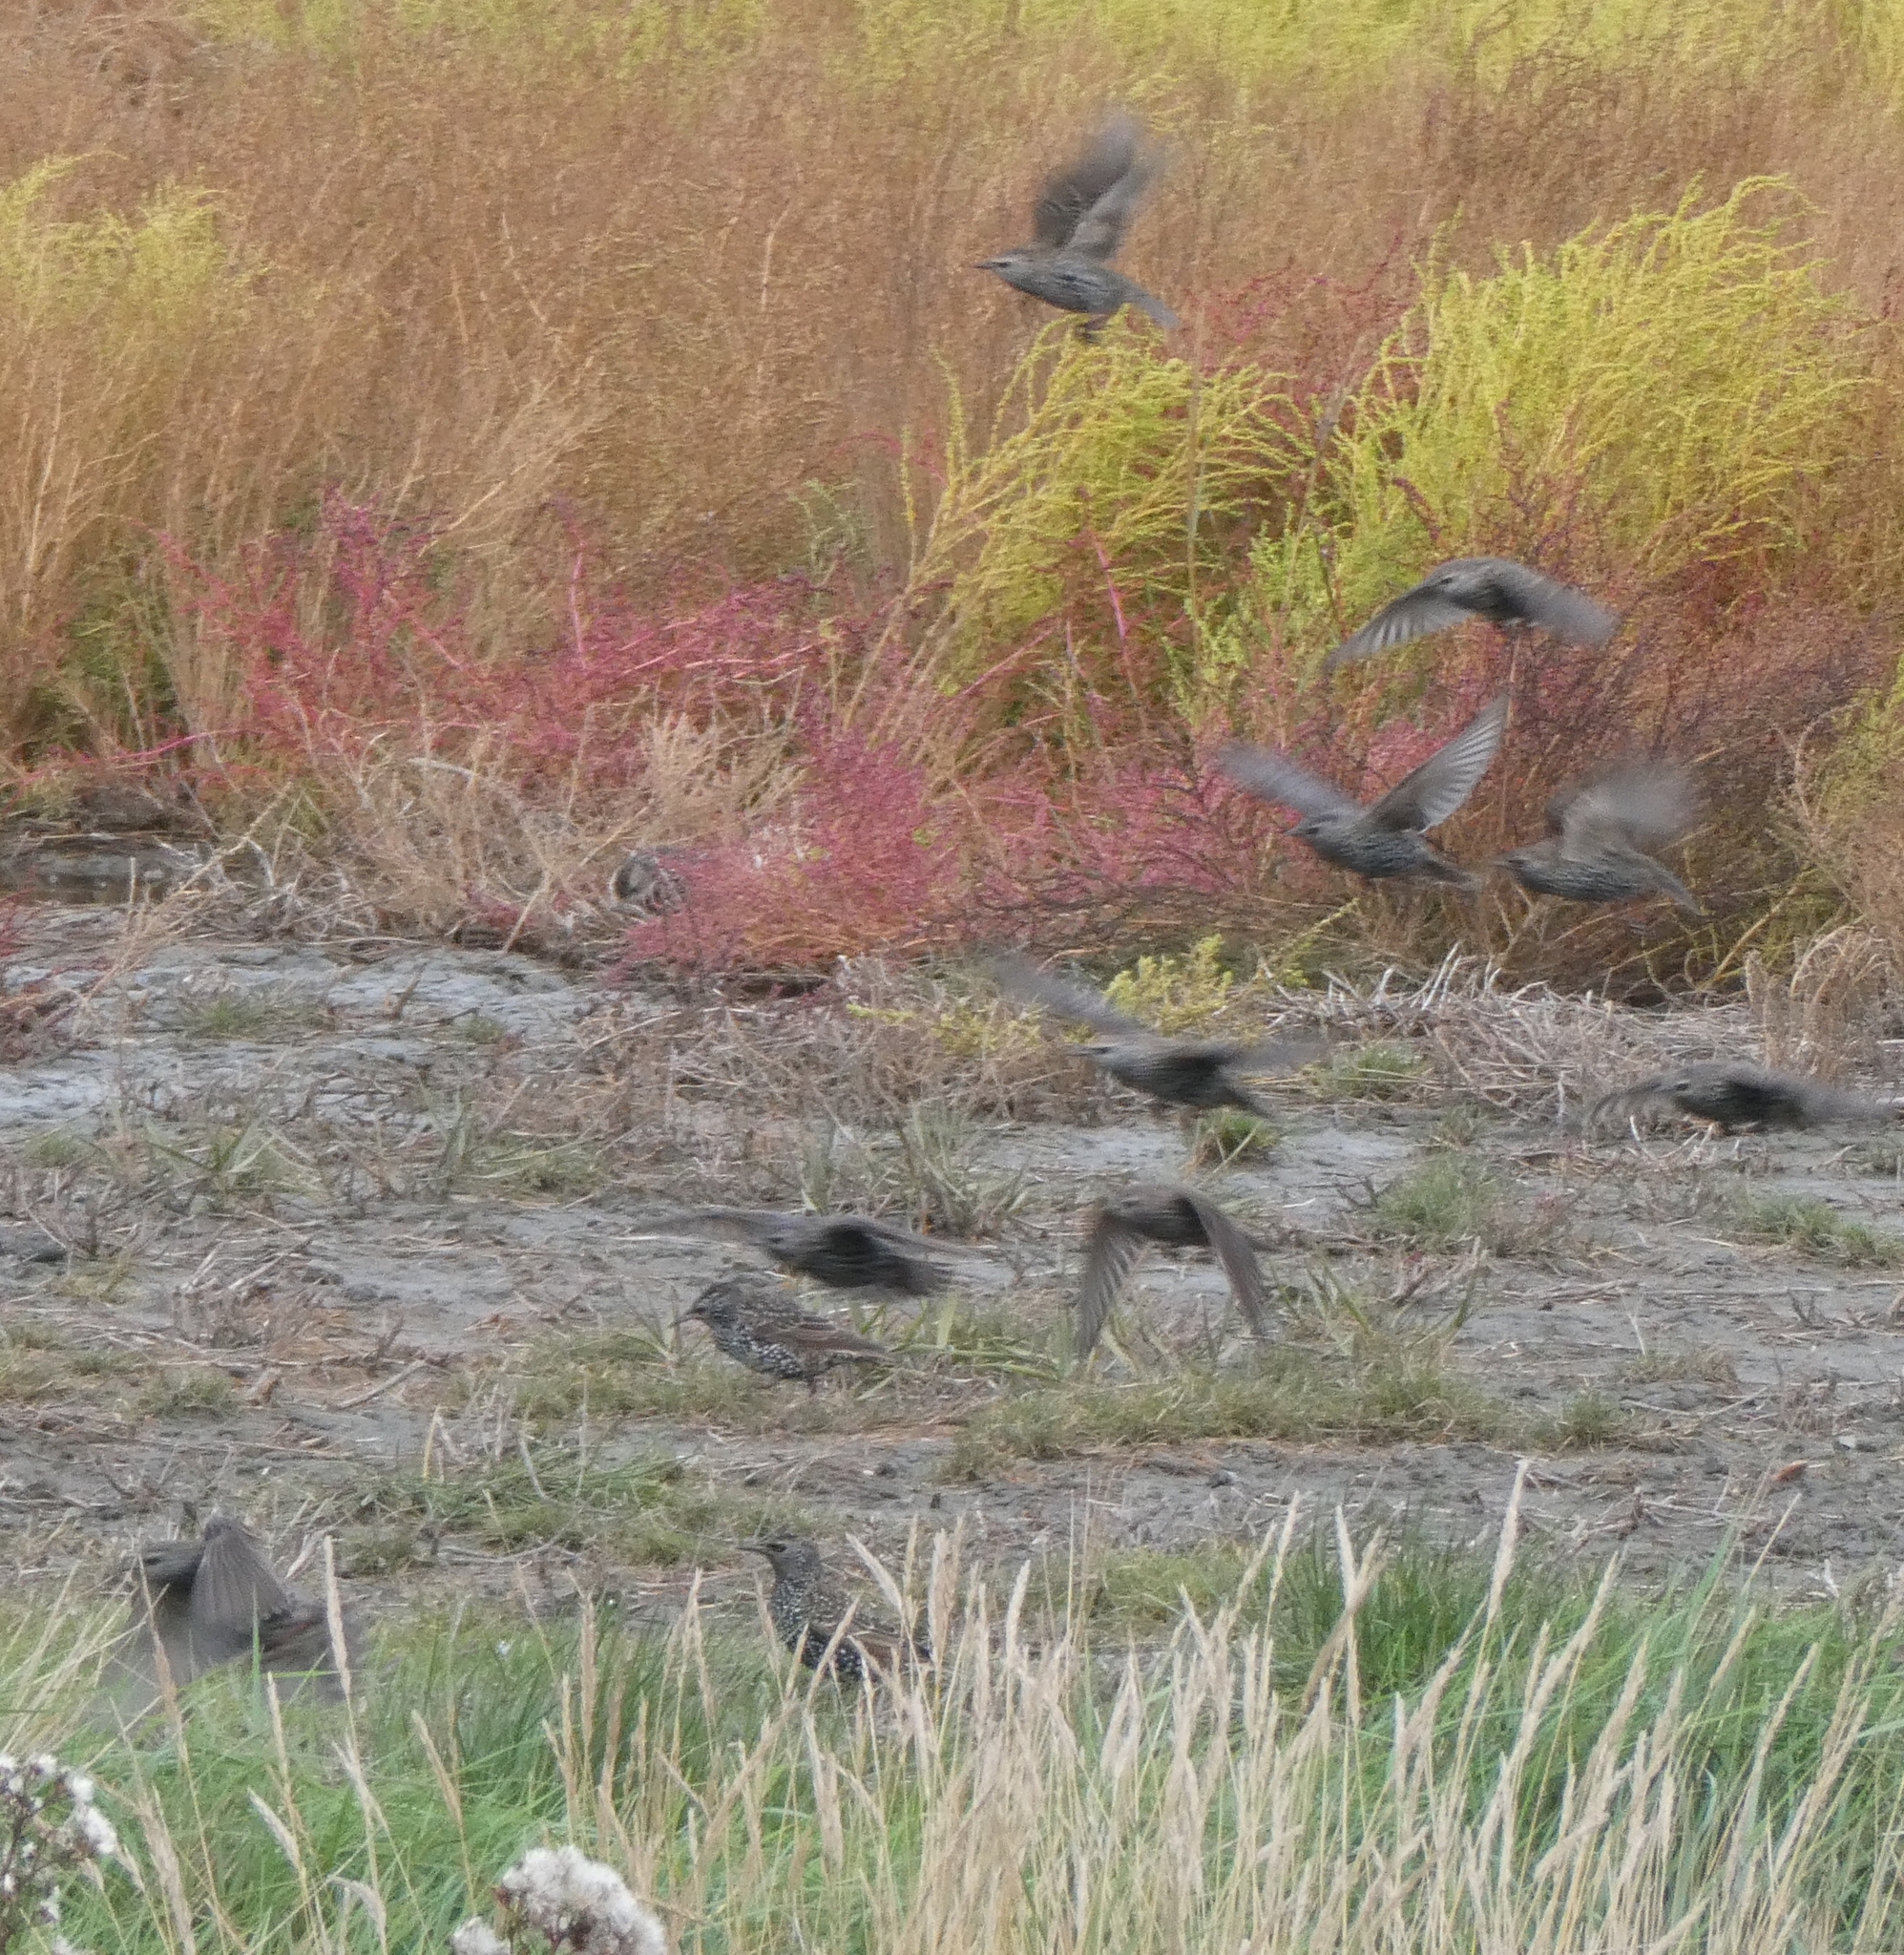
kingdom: Animalia
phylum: Chordata
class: Aves
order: Passeriformes
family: Sturnidae
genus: Sturnus
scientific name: Sturnus vulgaris
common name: Common starling
